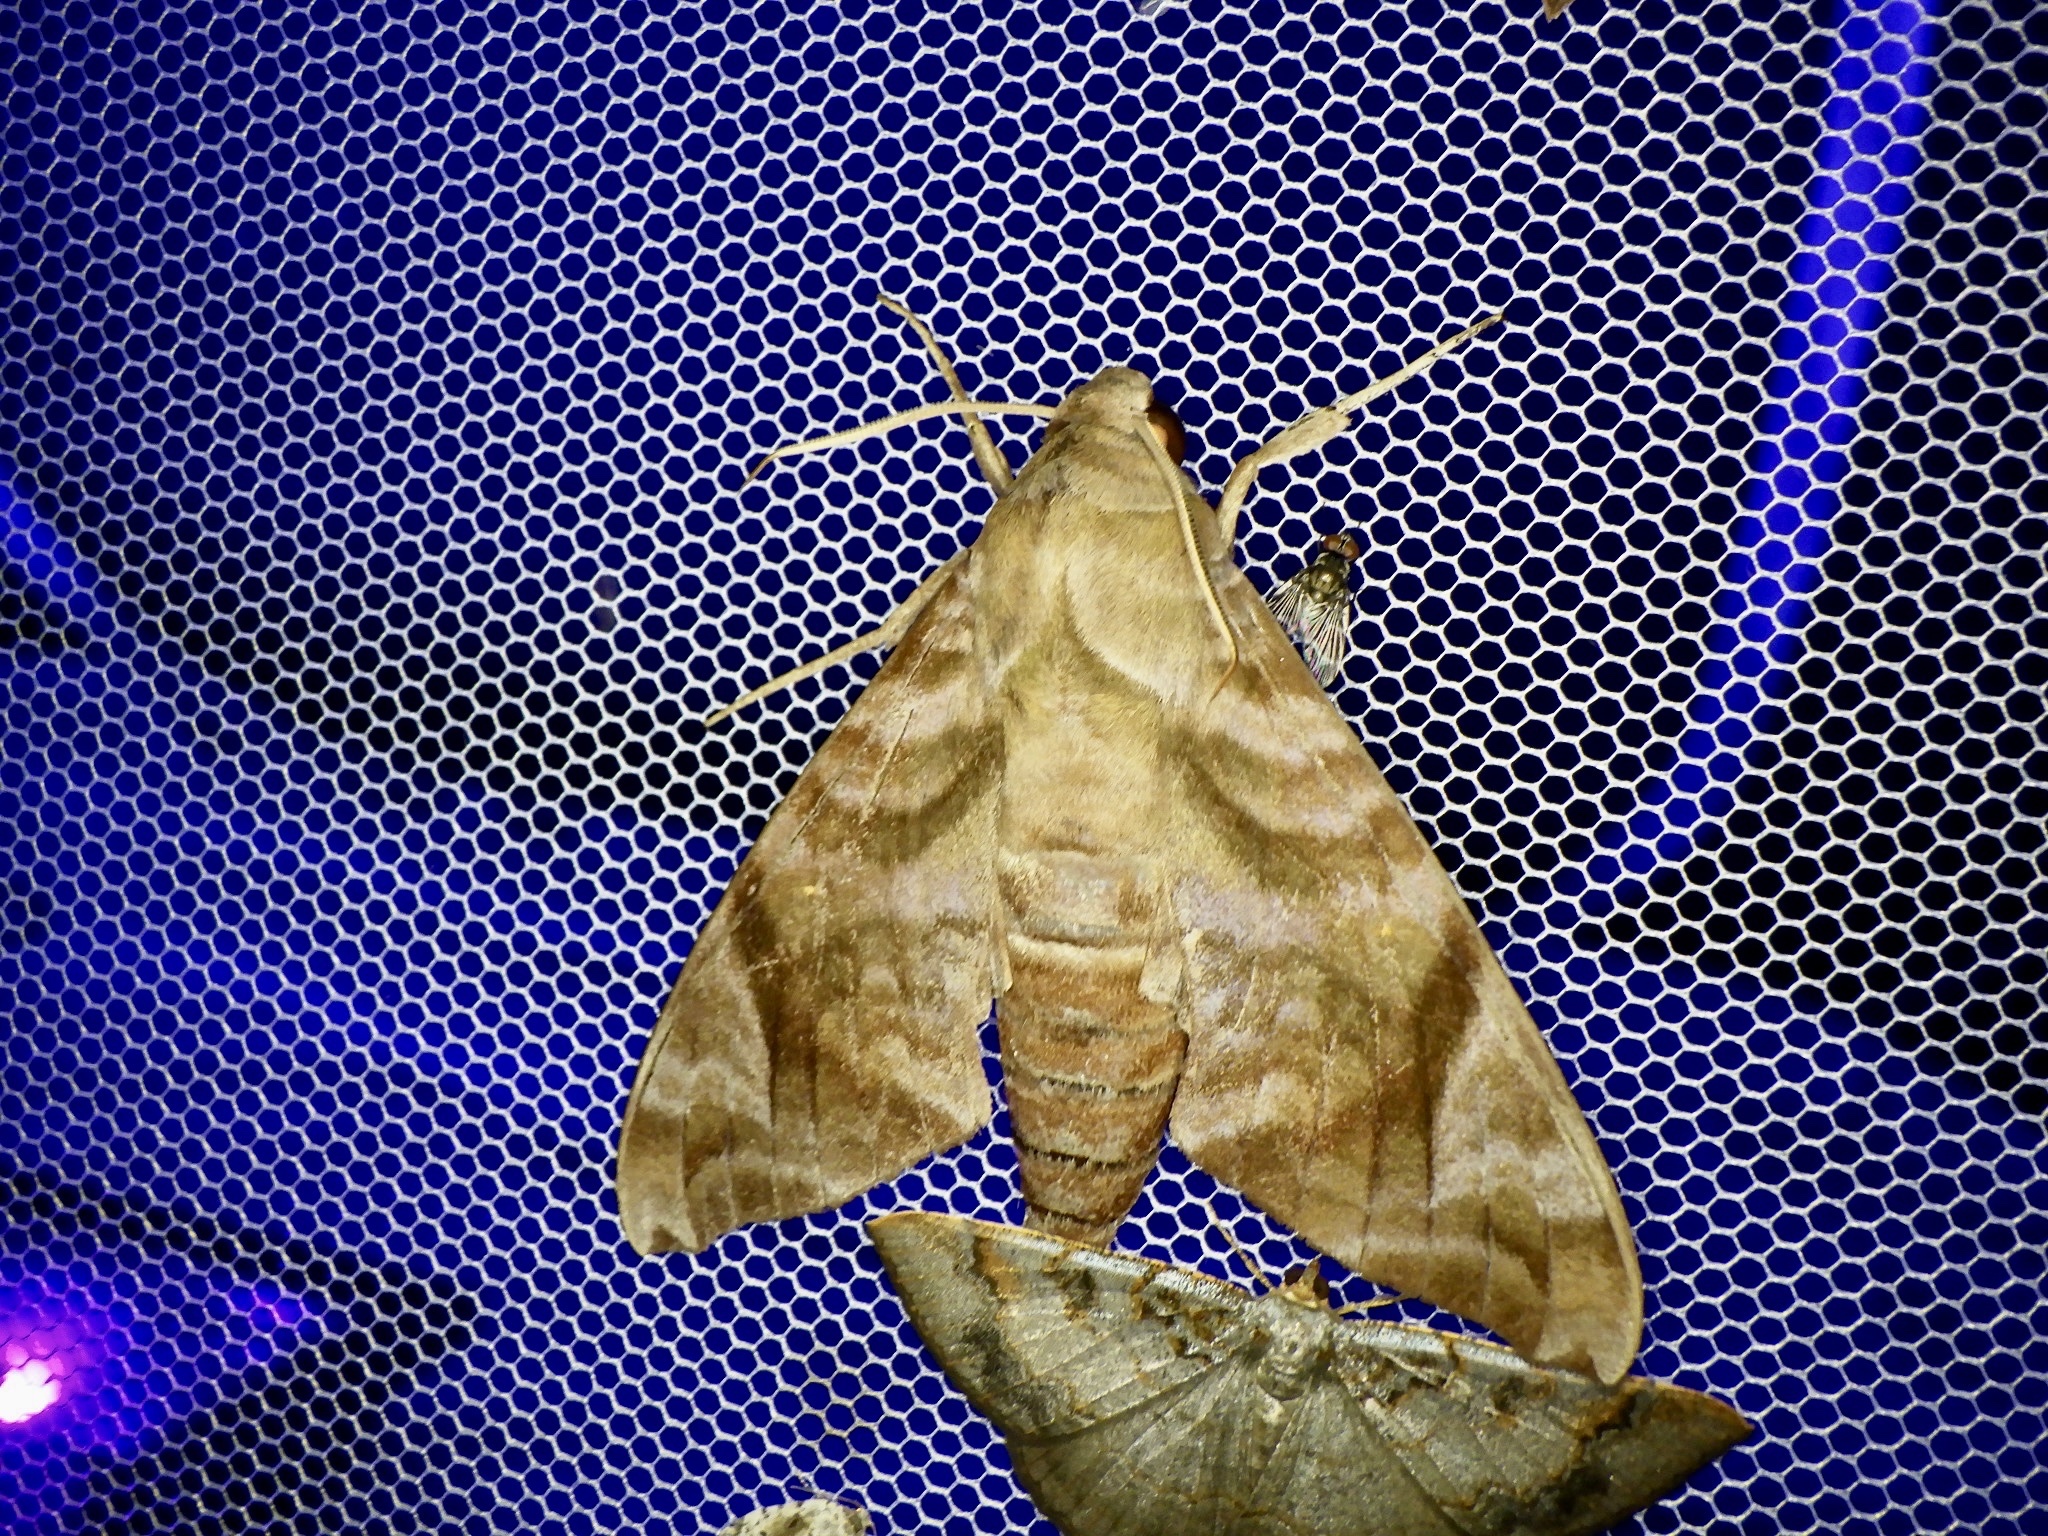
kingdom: Animalia
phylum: Arthropoda
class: Insecta
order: Lepidoptera
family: Sphingidae
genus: Acosmeryx
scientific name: Acosmeryx castanea
